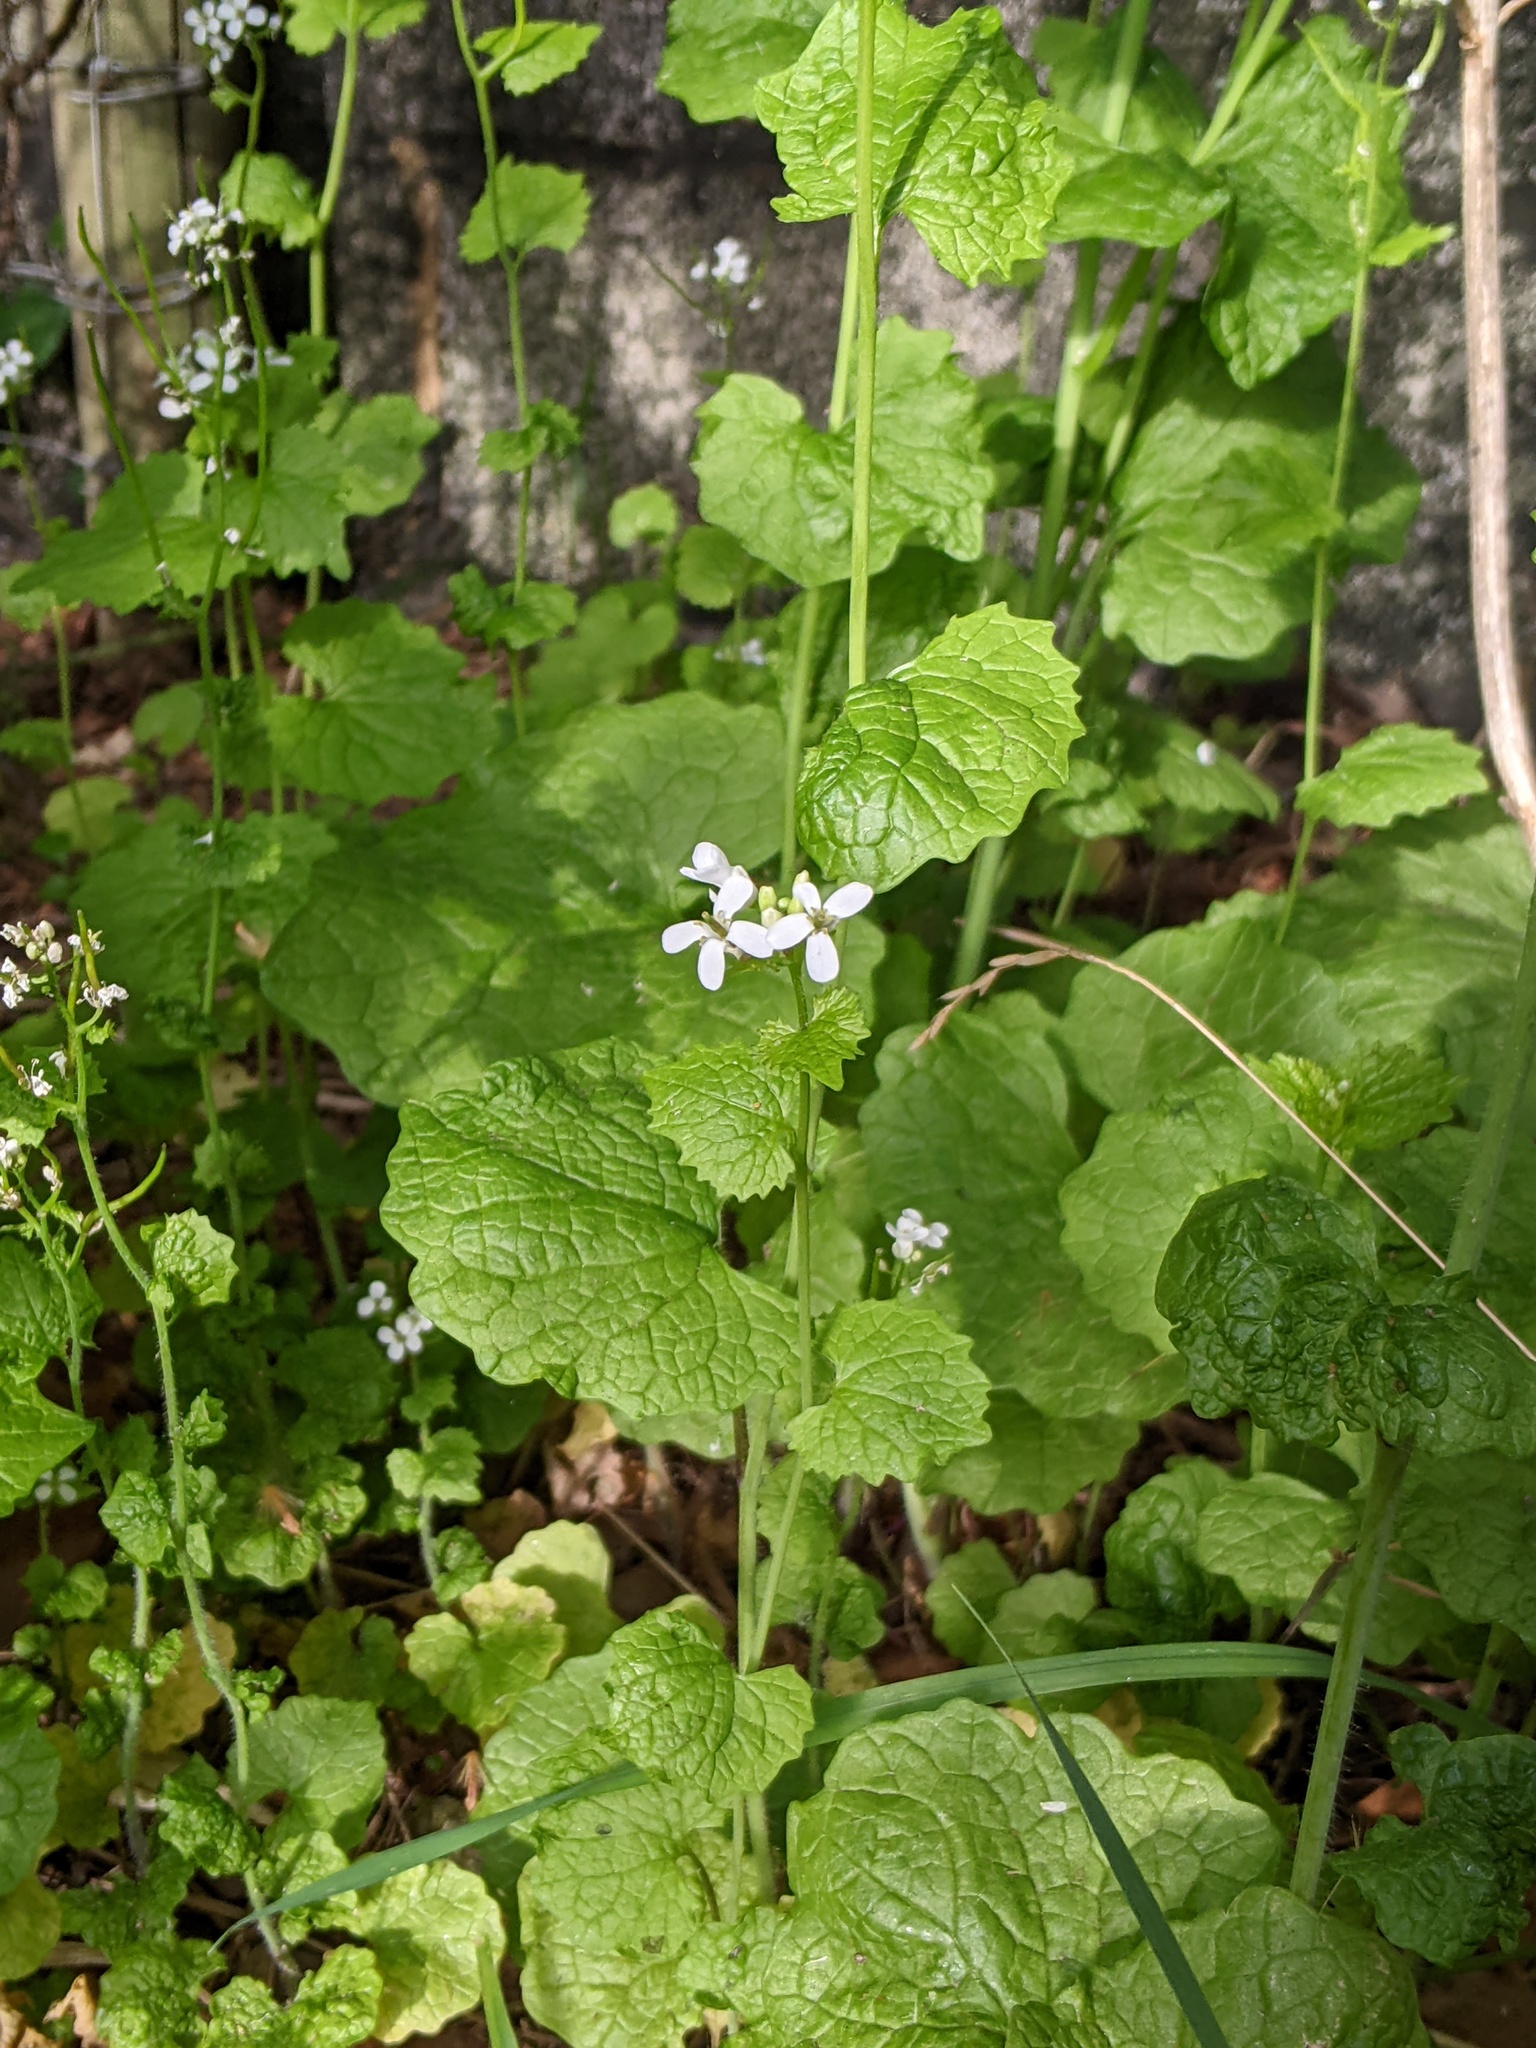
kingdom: Plantae
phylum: Tracheophyta
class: Magnoliopsida
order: Brassicales
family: Brassicaceae
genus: Alliaria
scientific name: Alliaria petiolata
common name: Garlic mustard
